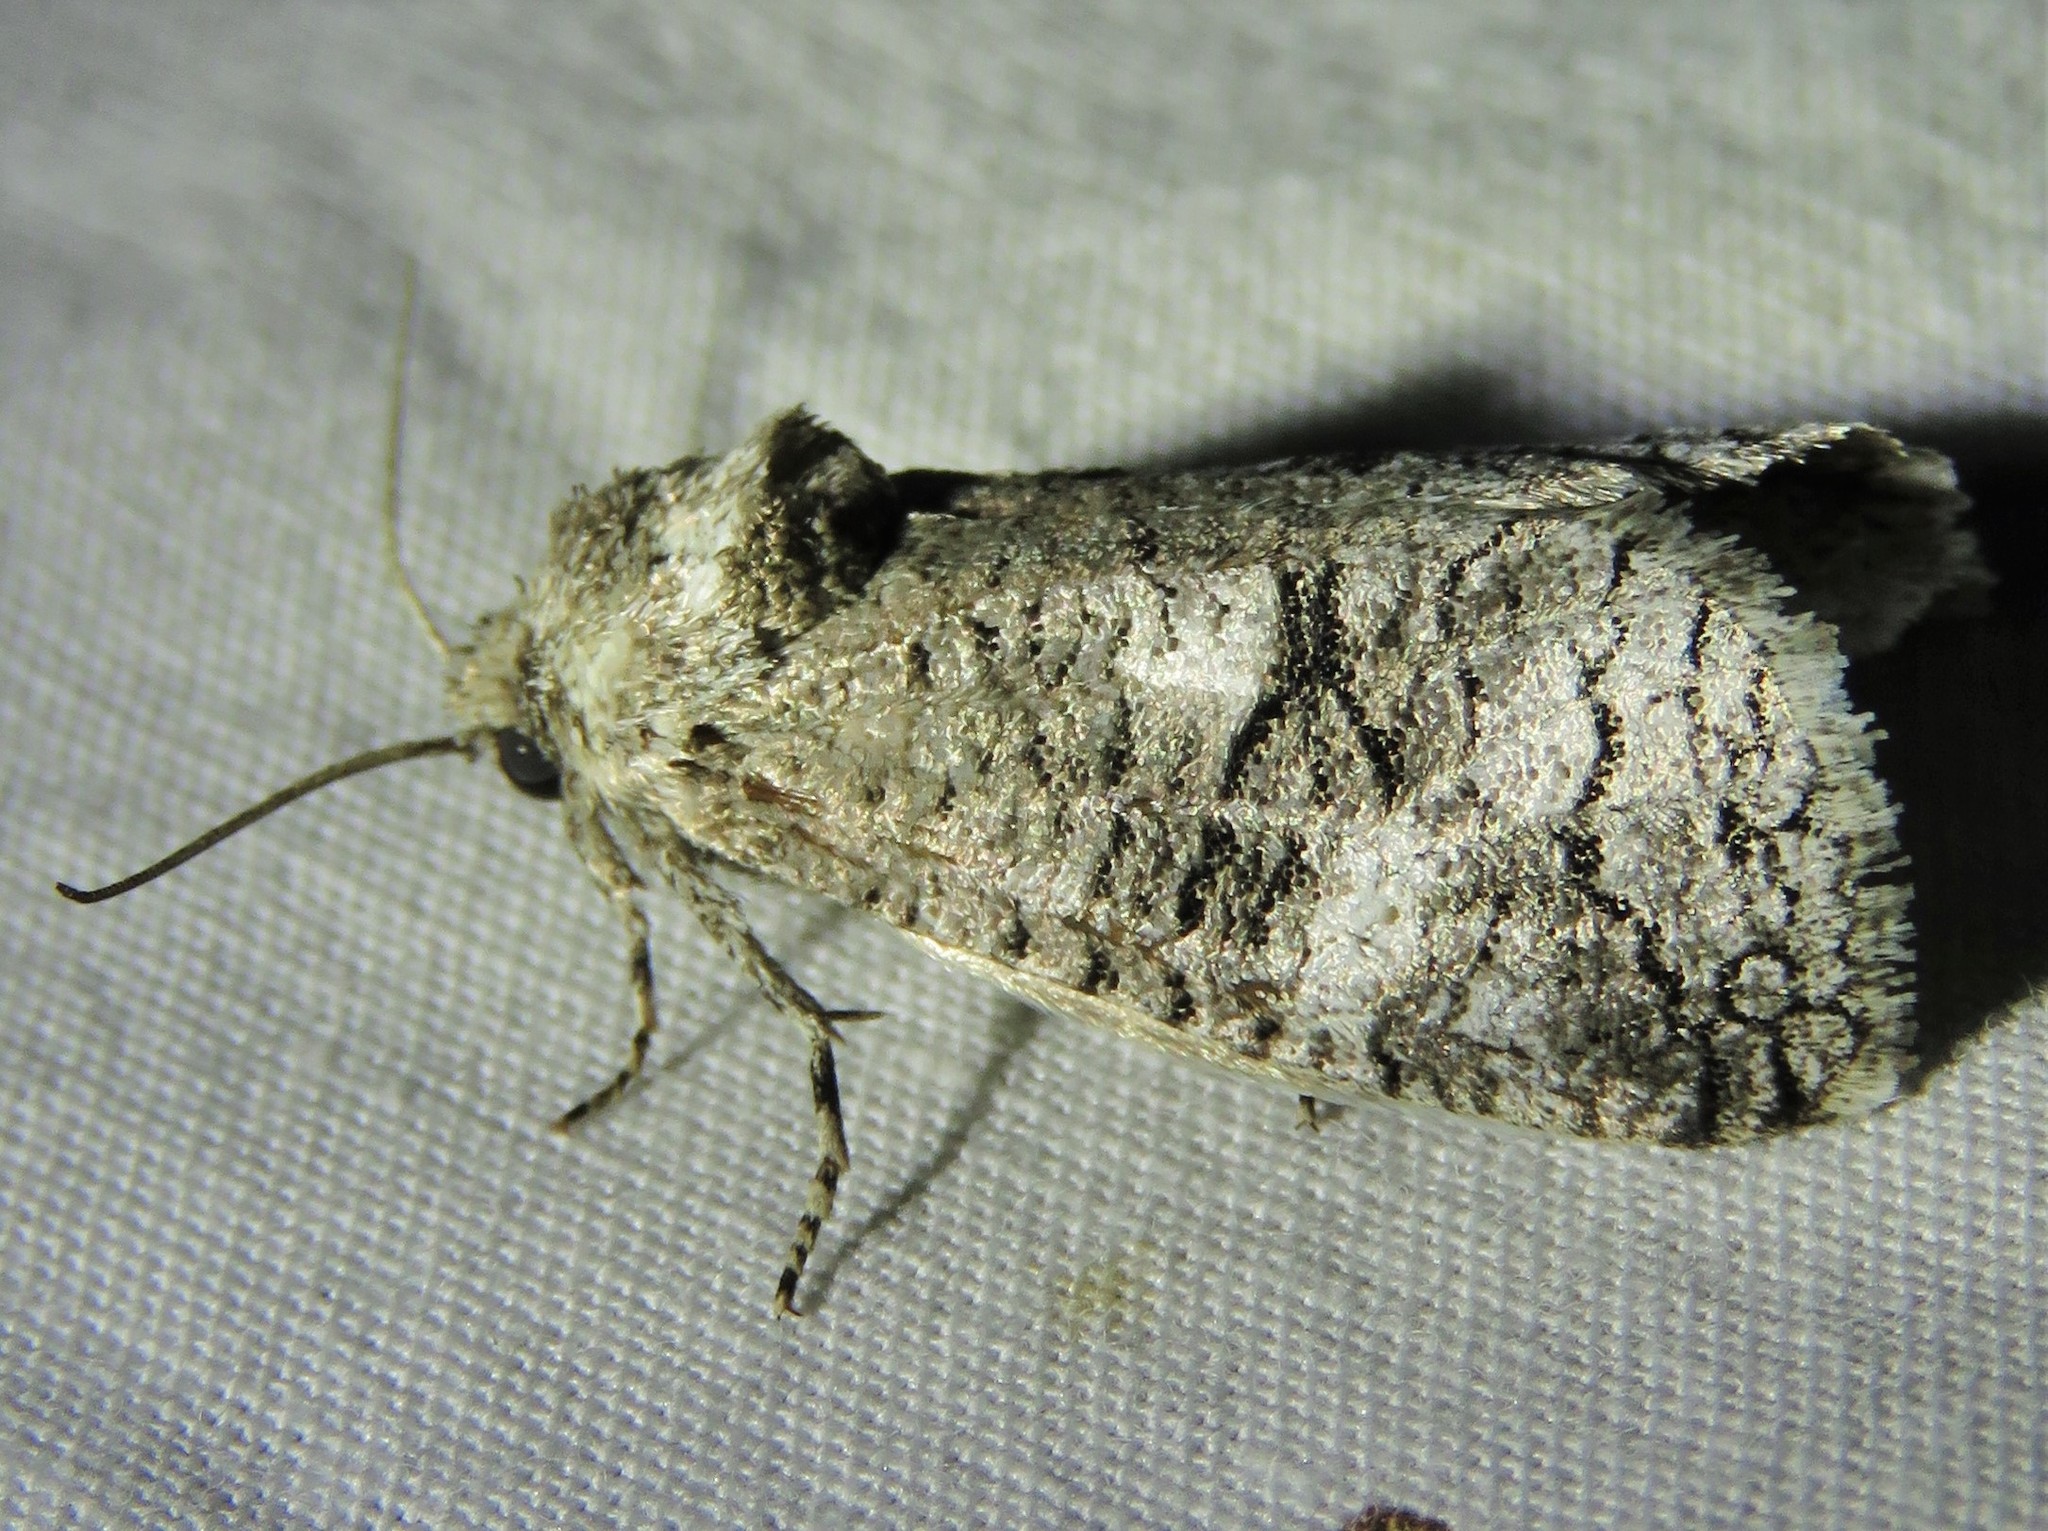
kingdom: Animalia
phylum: Arthropoda
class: Insecta
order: Lepidoptera
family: Cossidae
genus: Fania
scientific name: Fania nanus
